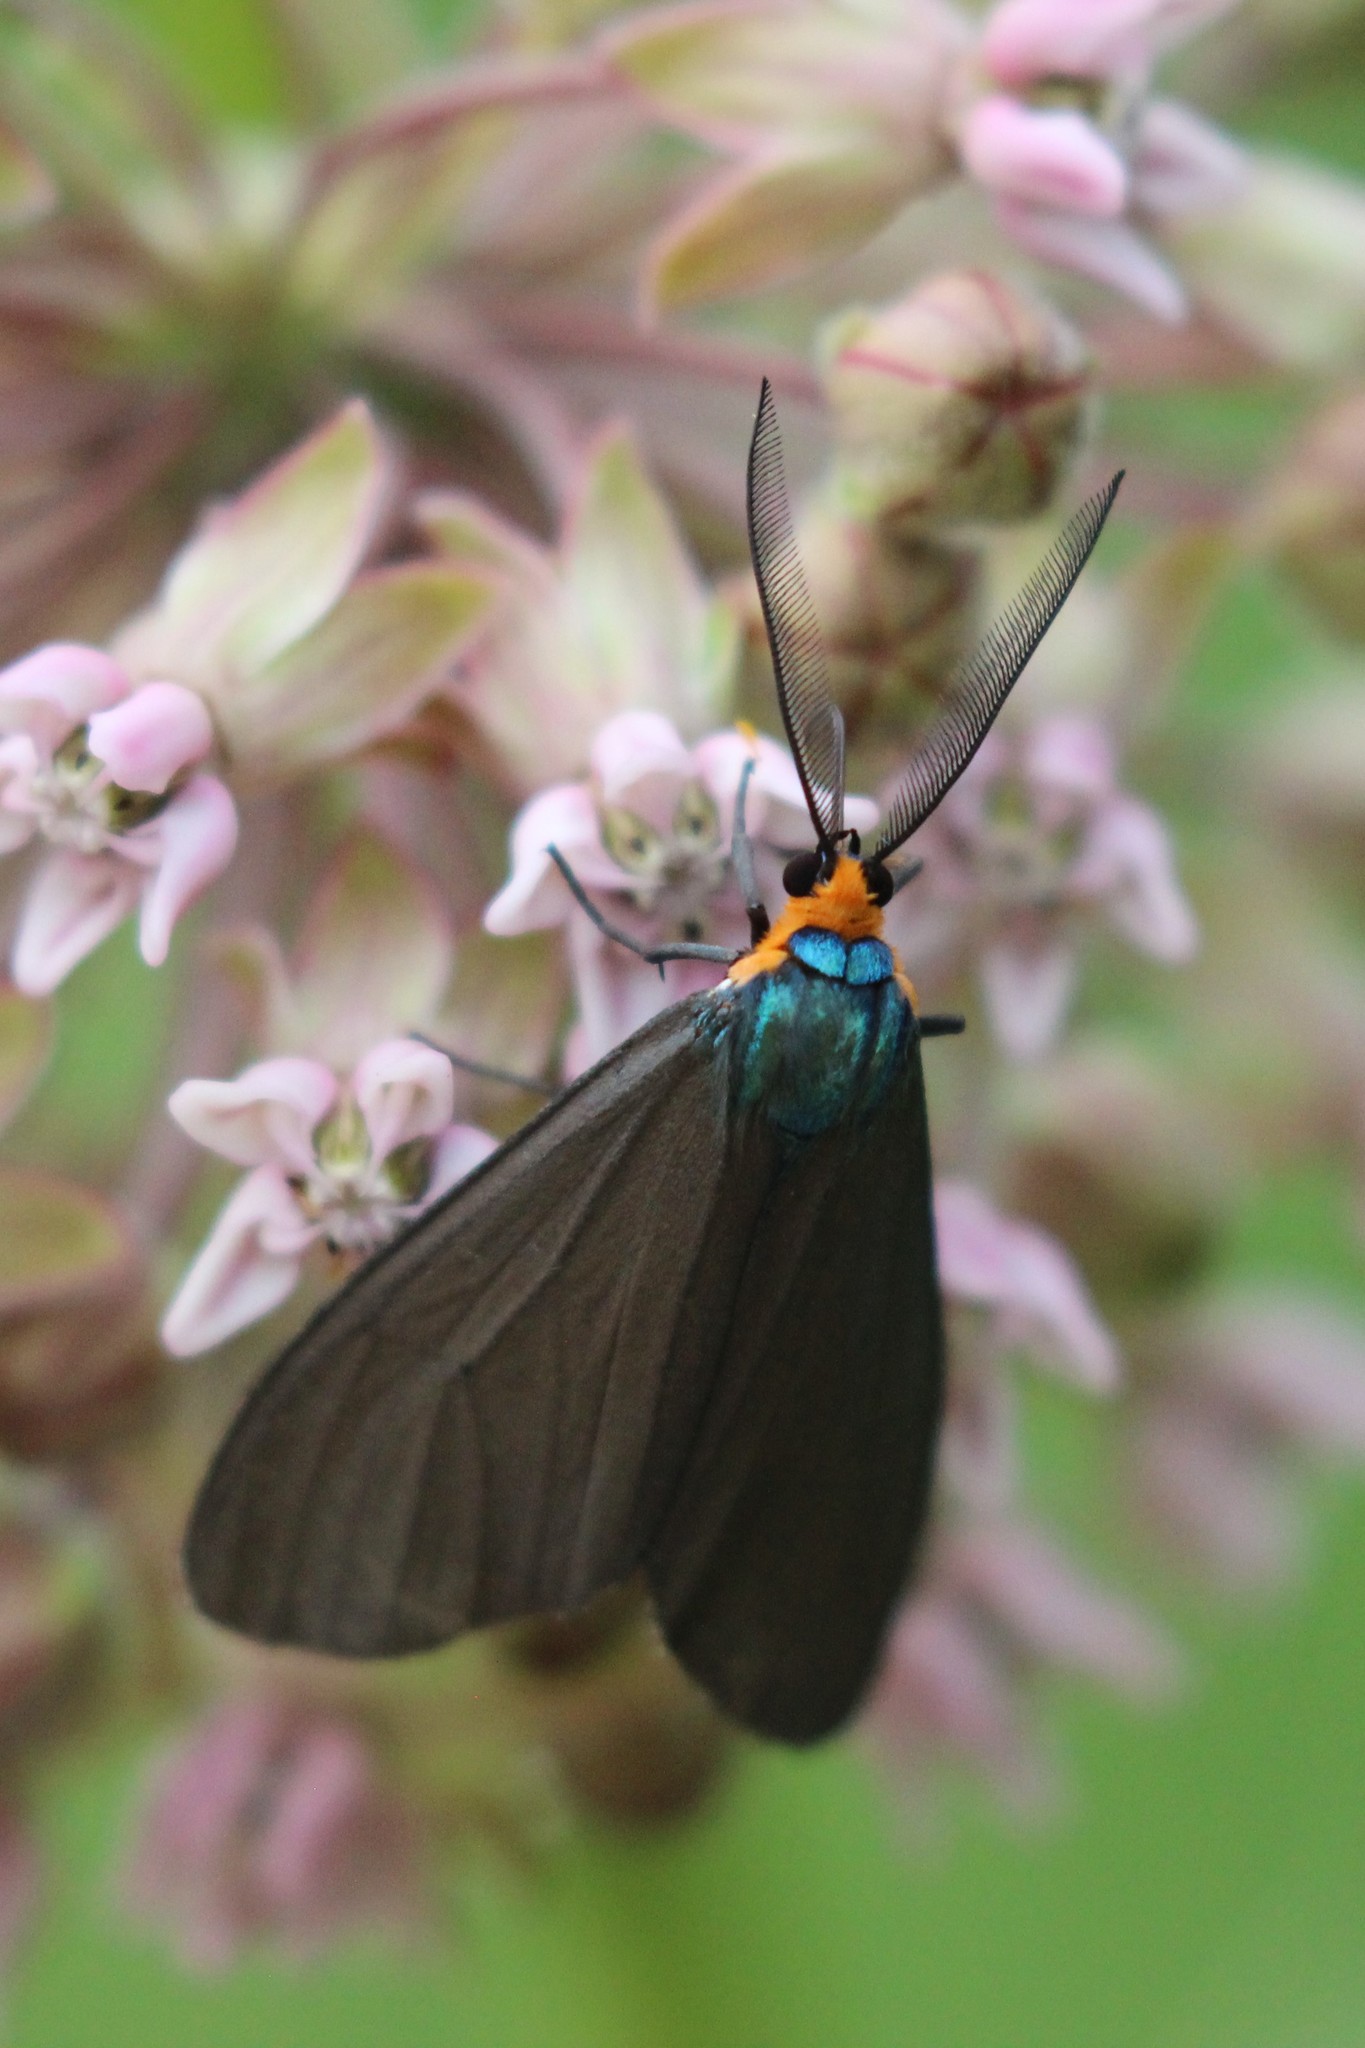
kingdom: Animalia
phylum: Arthropoda
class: Insecta
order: Lepidoptera
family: Erebidae
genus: Ctenucha
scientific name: Ctenucha virginica
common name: Virginia ctenucha moth
